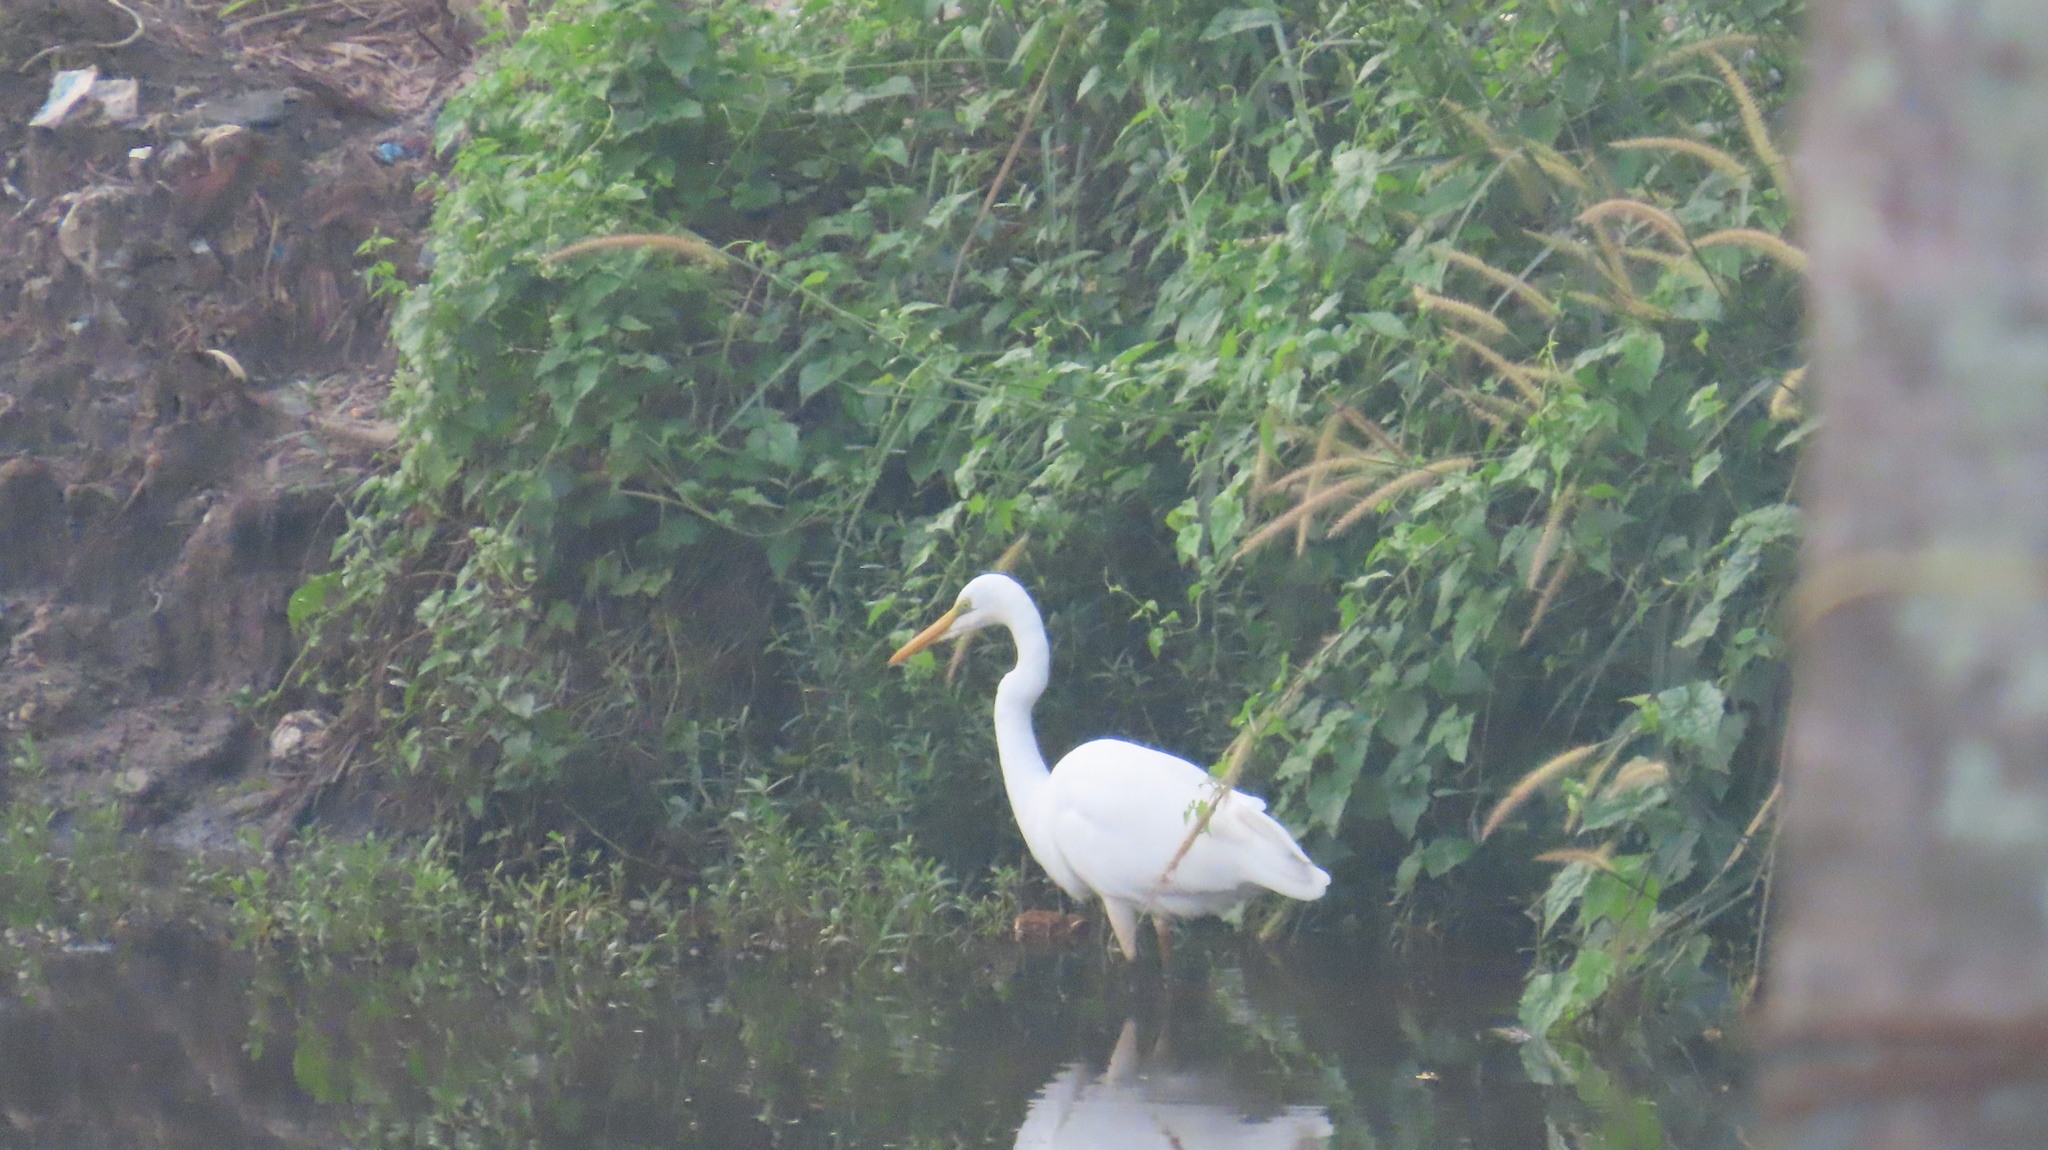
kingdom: Animalia
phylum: Chordata
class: Aves
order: Pelecaniformes
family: Ardeidae
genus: Ardea
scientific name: Ardea alba
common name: Great egret
